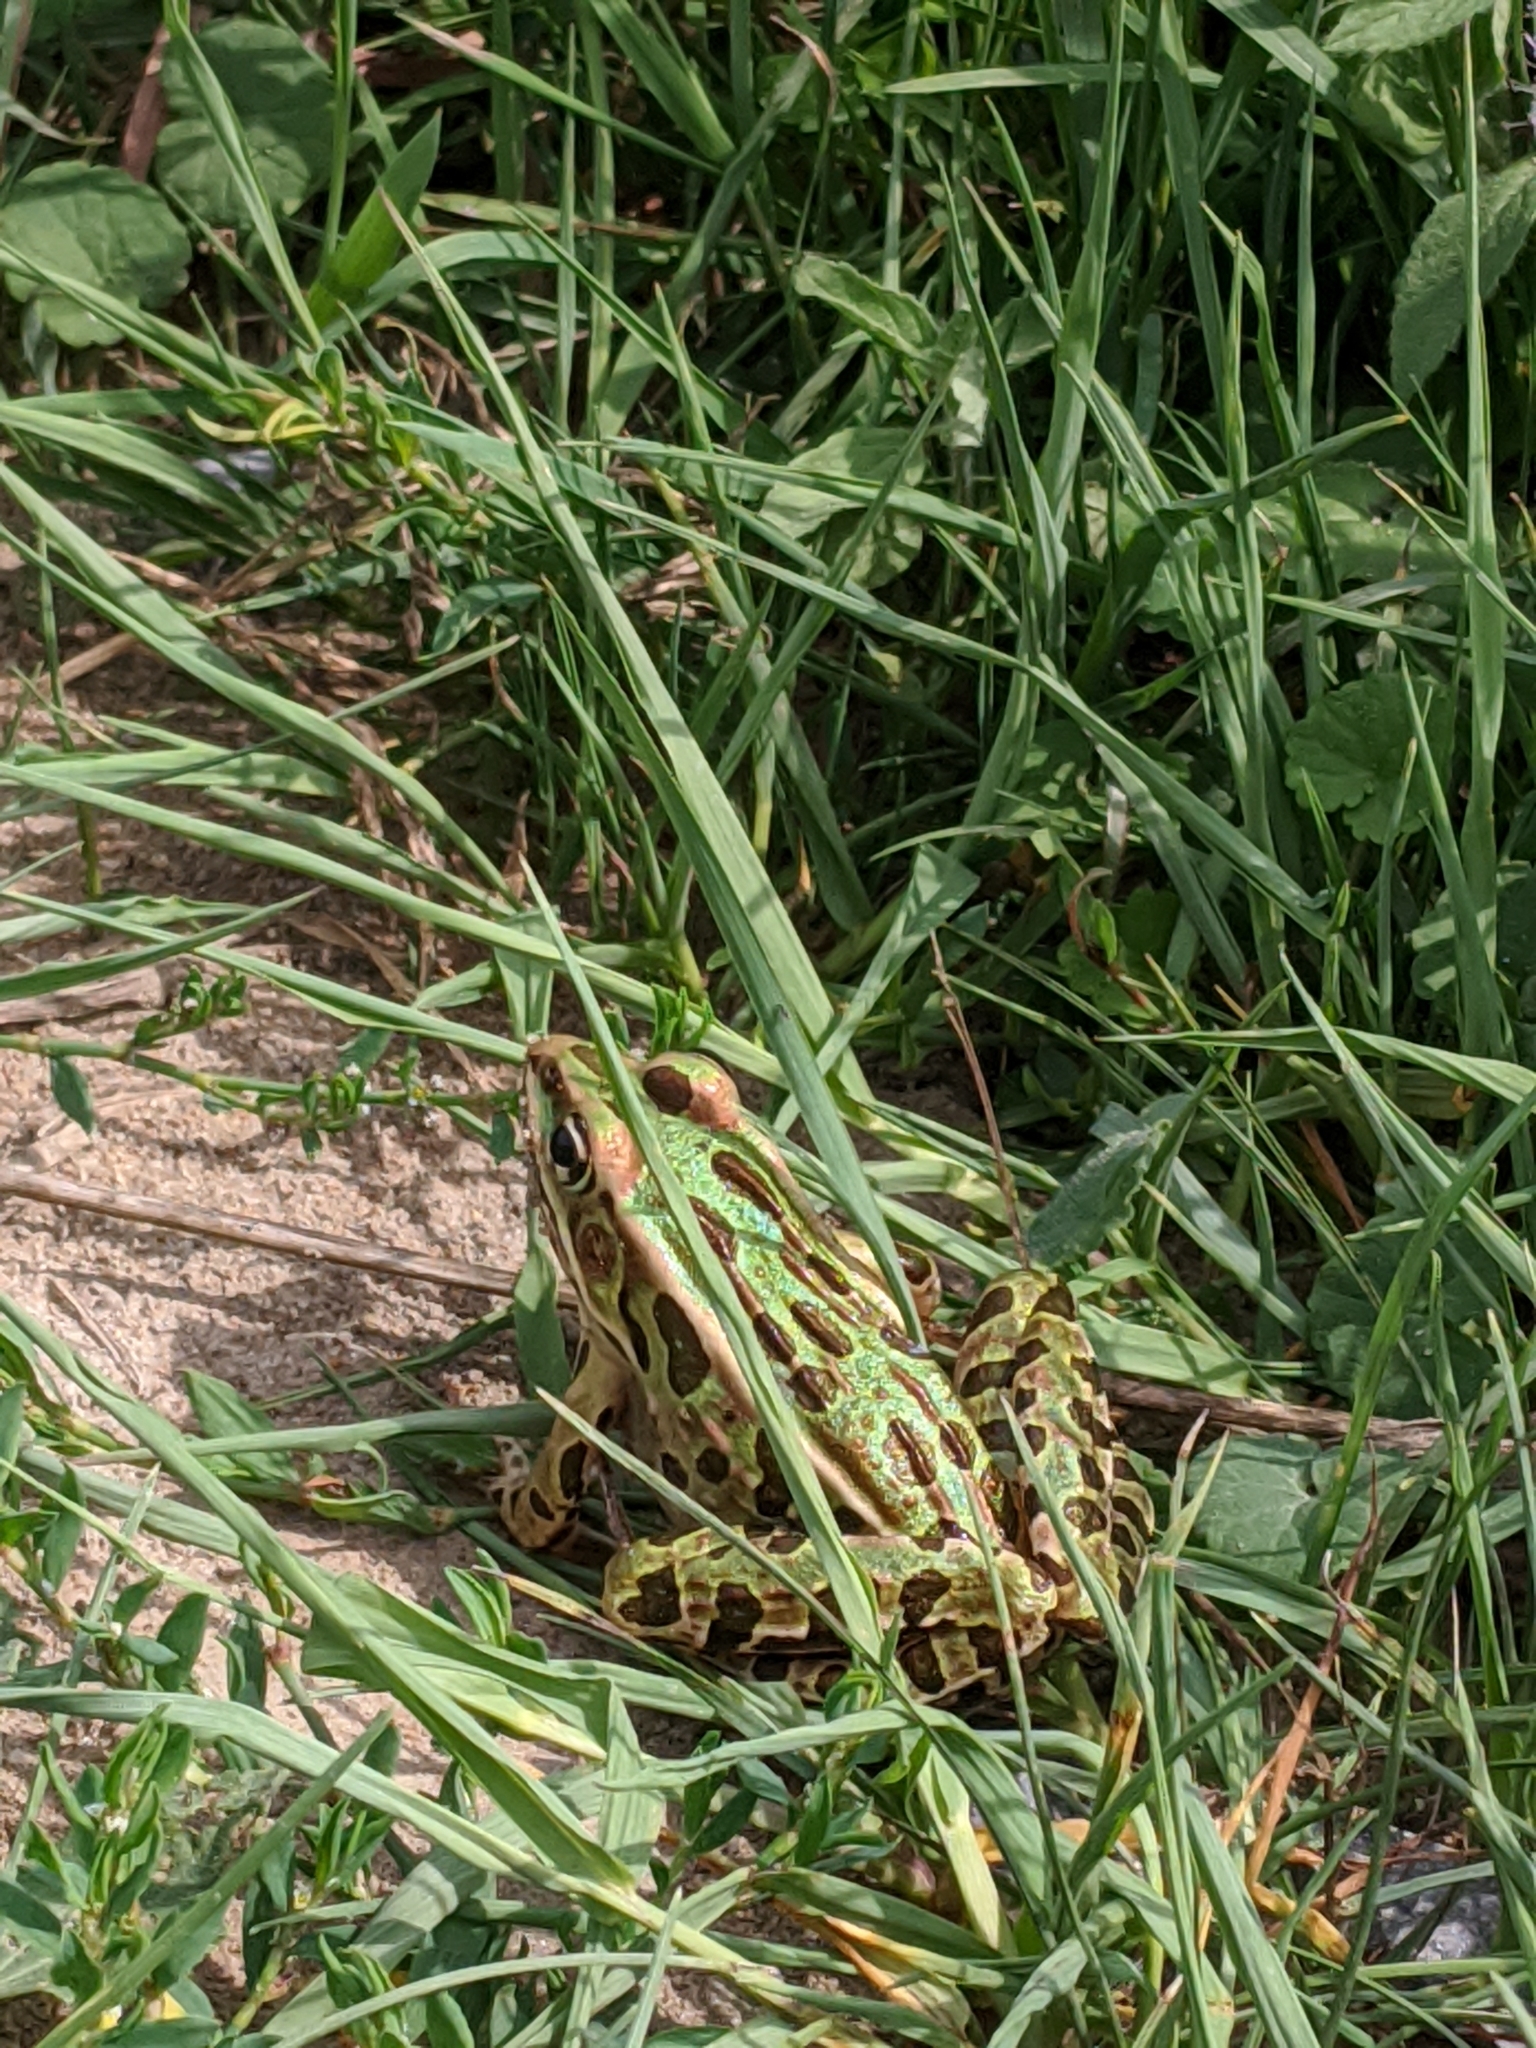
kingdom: Animalia
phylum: Chordata
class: Amphibia
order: Anura
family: Ranidae
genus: Lithobates
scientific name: Lithobates pipiens
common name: Northern leopard frog
